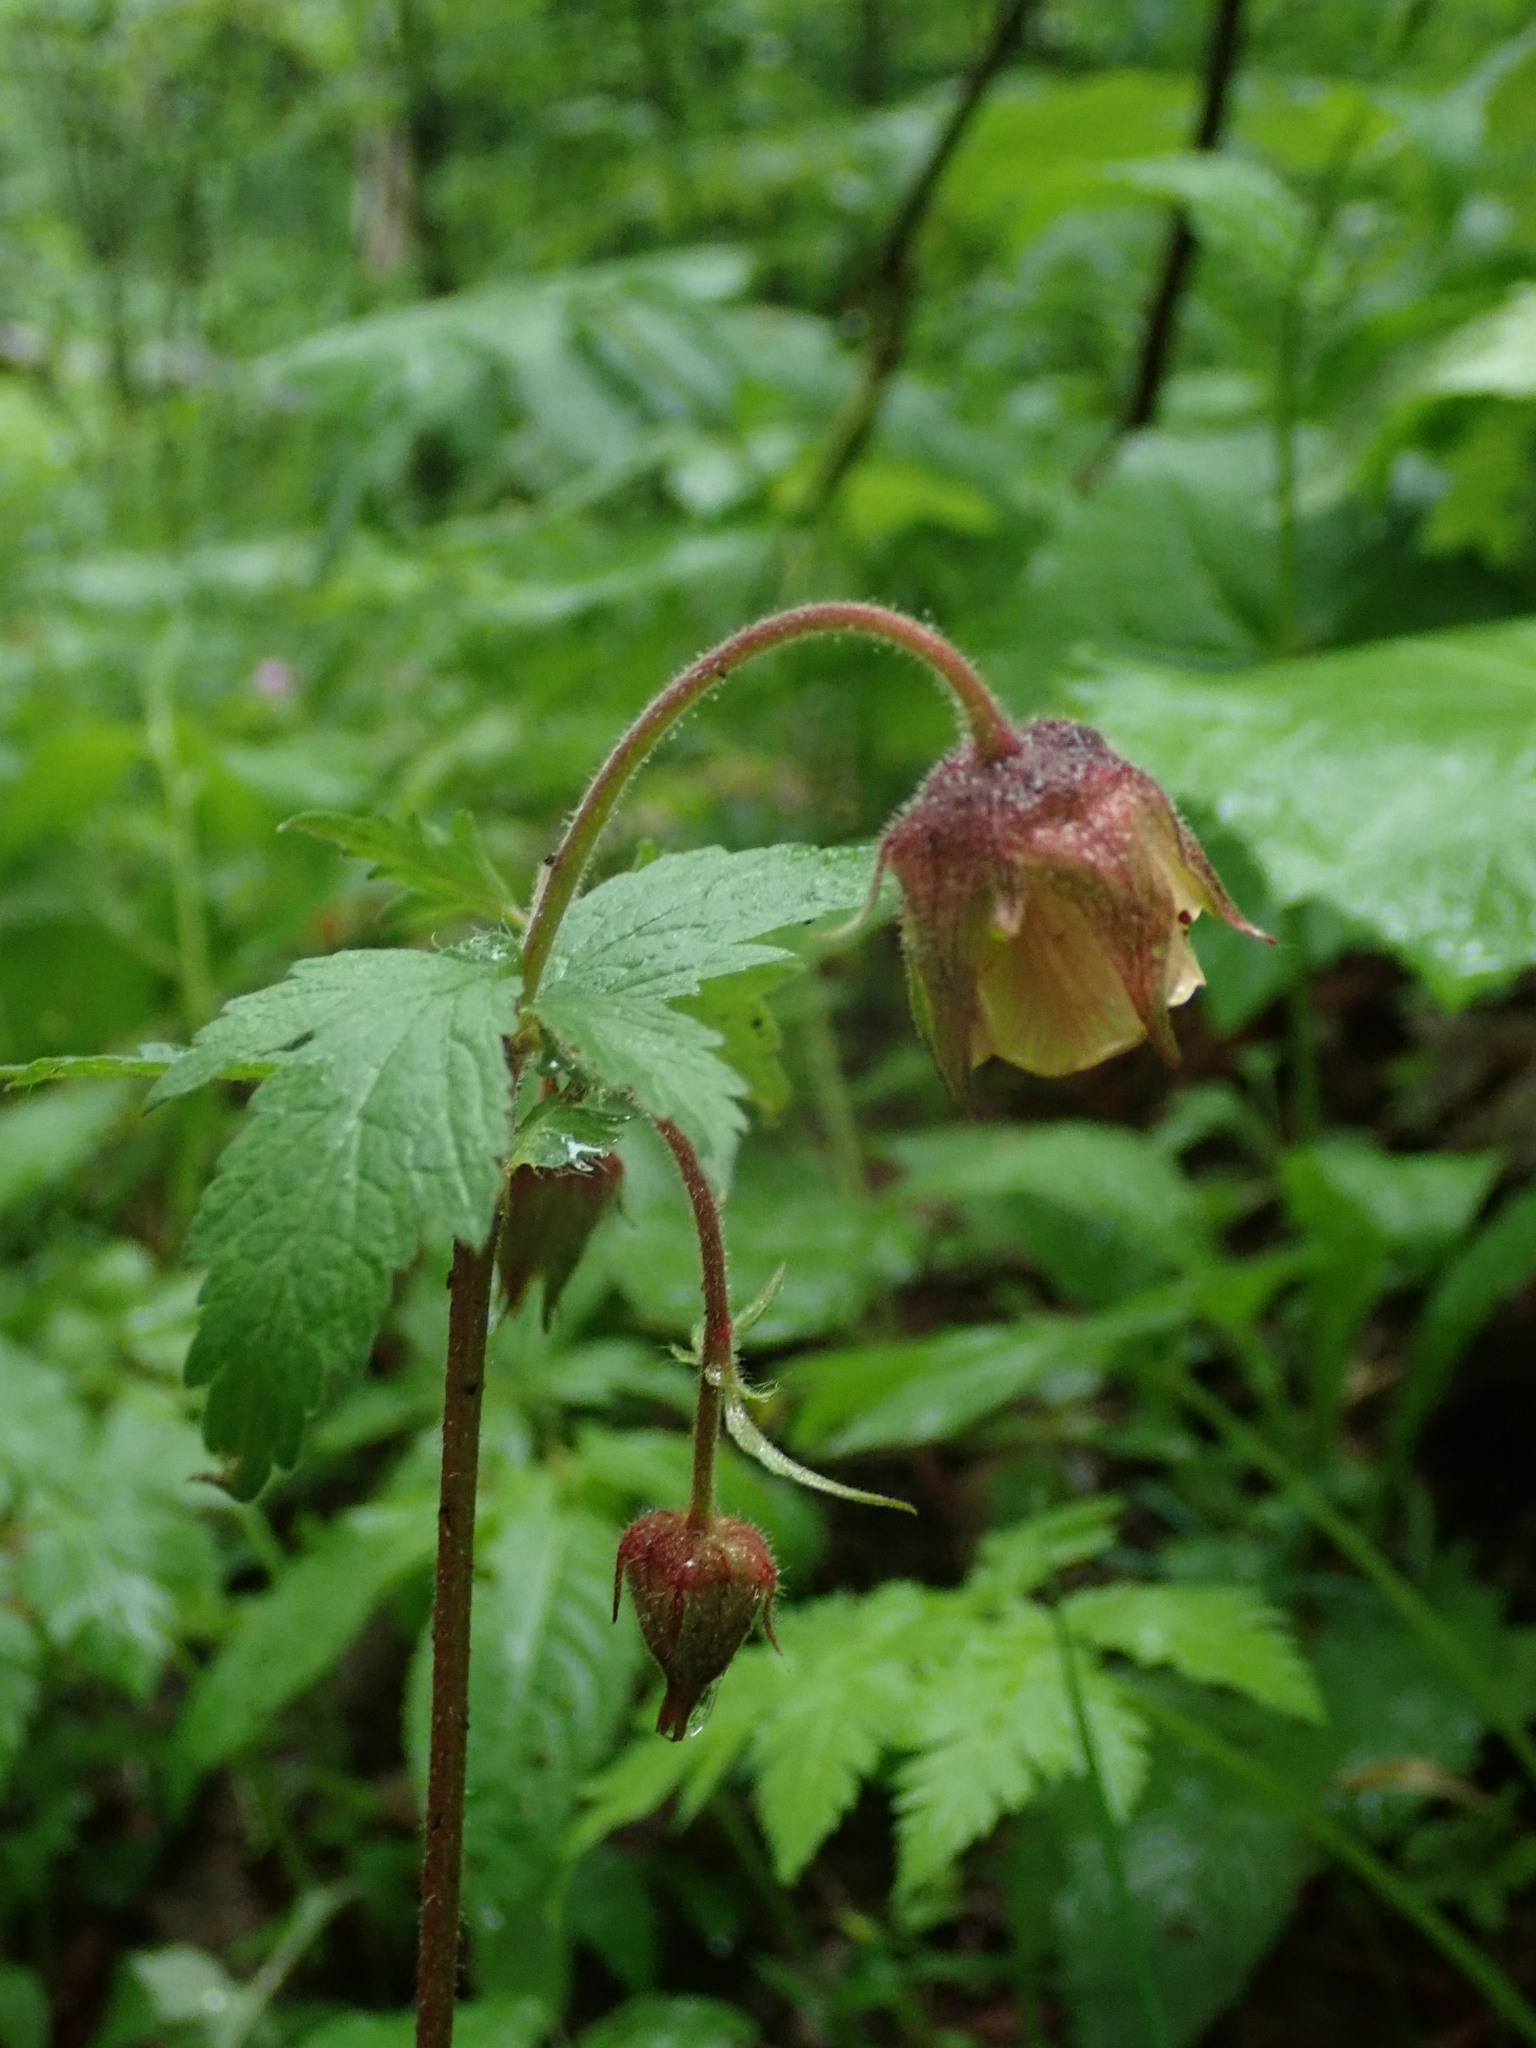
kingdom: Plantae
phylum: Tracheophyta
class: Magnoliopsida
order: Rosales
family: Rosaceae
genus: Geum
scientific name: Geum rivale
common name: Water avens
